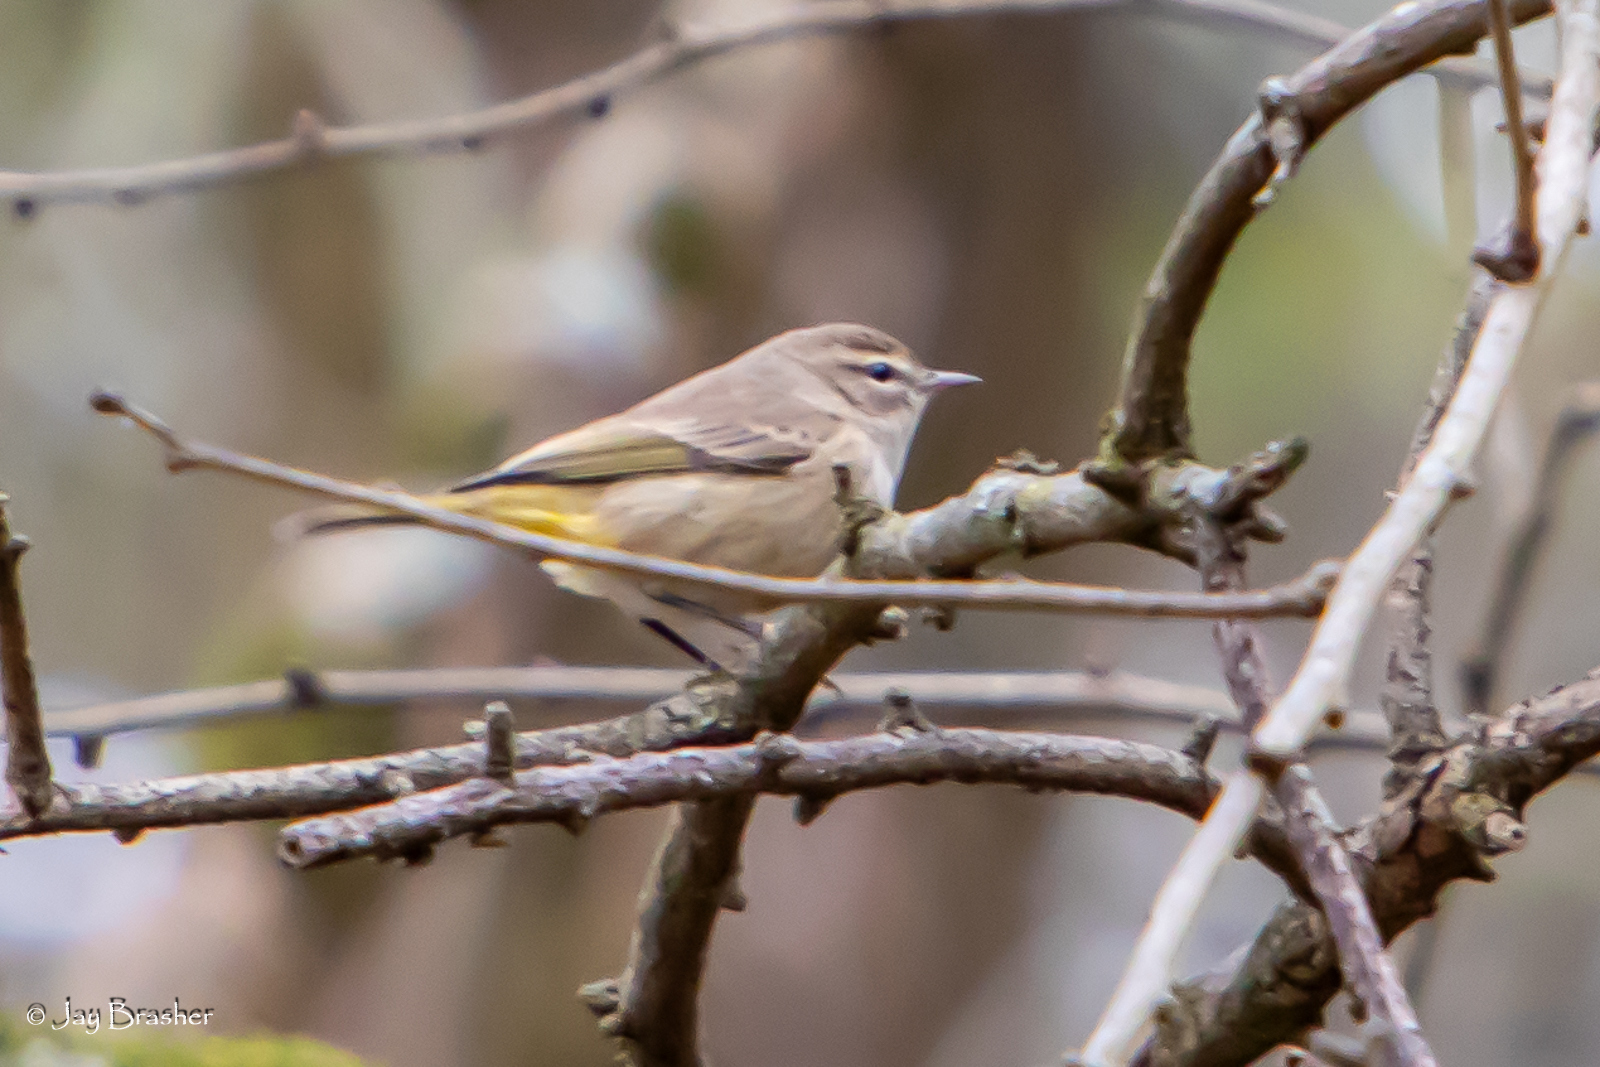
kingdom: Animalia
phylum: Chordata
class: Aves
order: Passeriformes
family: Parulidae
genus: Setophaga
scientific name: Setophaga palmarum
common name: Palm warbler
